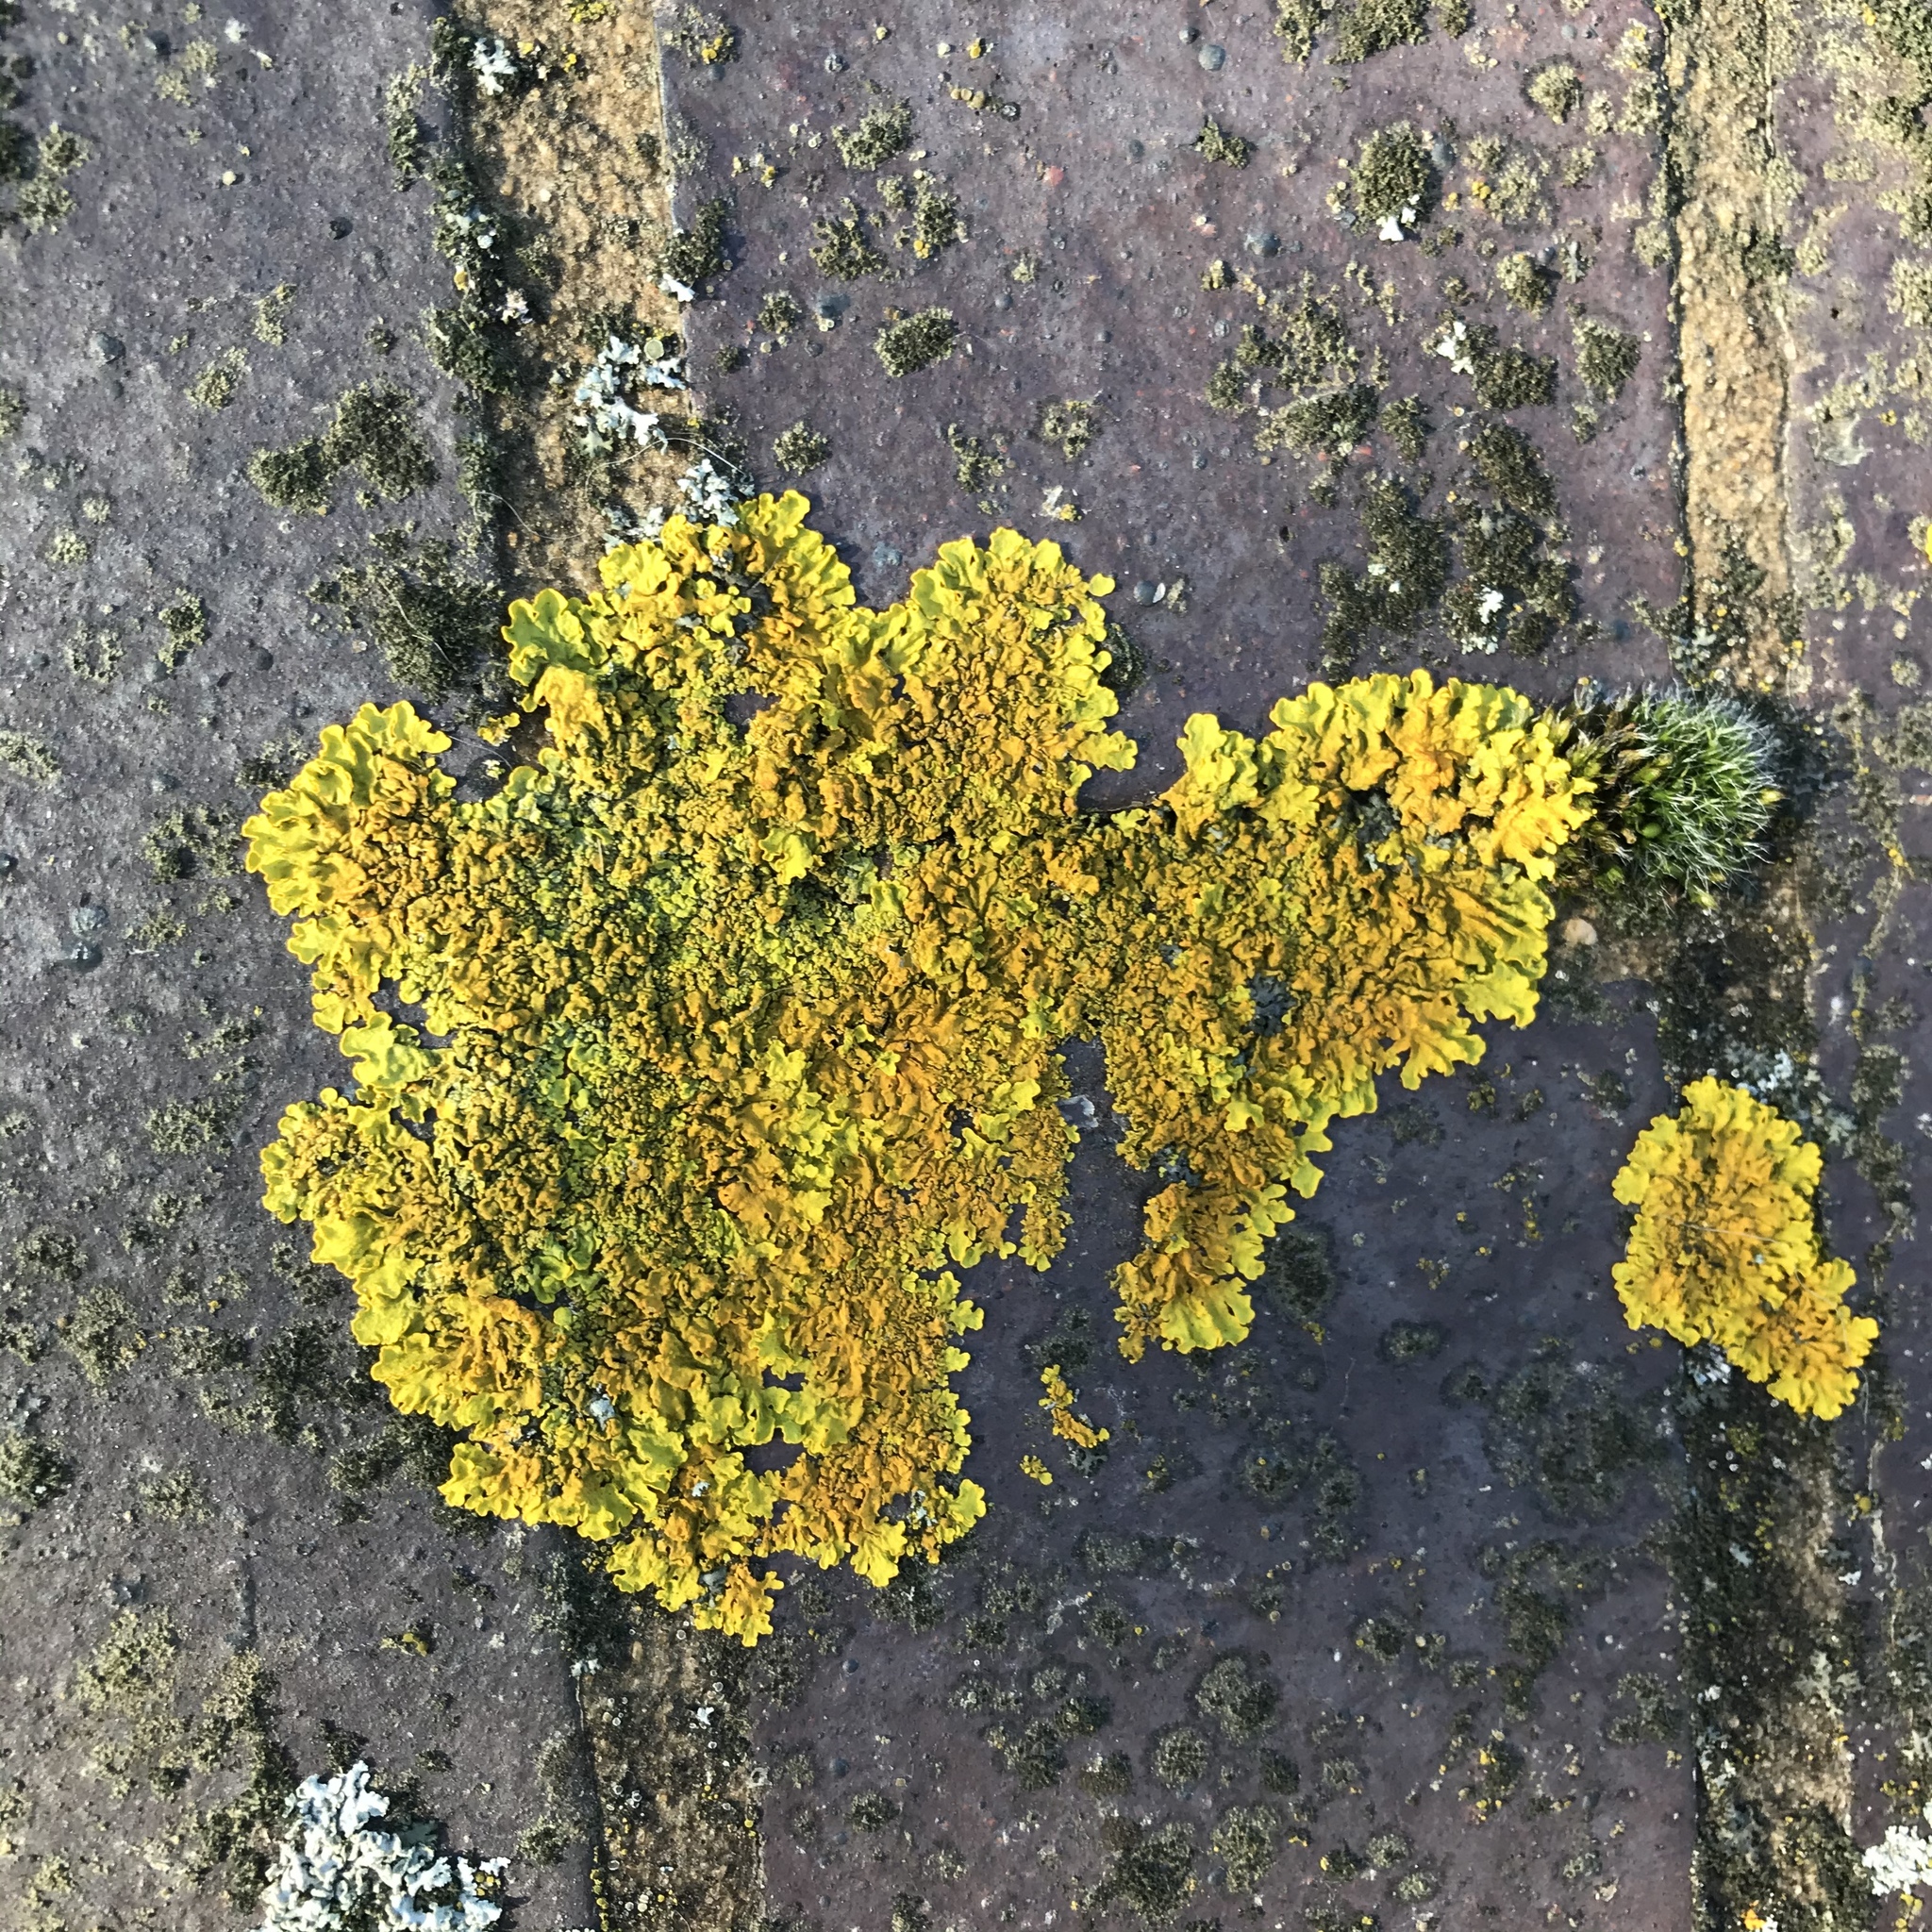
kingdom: Fungi
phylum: Ascomycota
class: Lecanoromycetes
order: Teloschistales
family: Teloschistaceae
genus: Xanthoria
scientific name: Xanthoria calcicola
